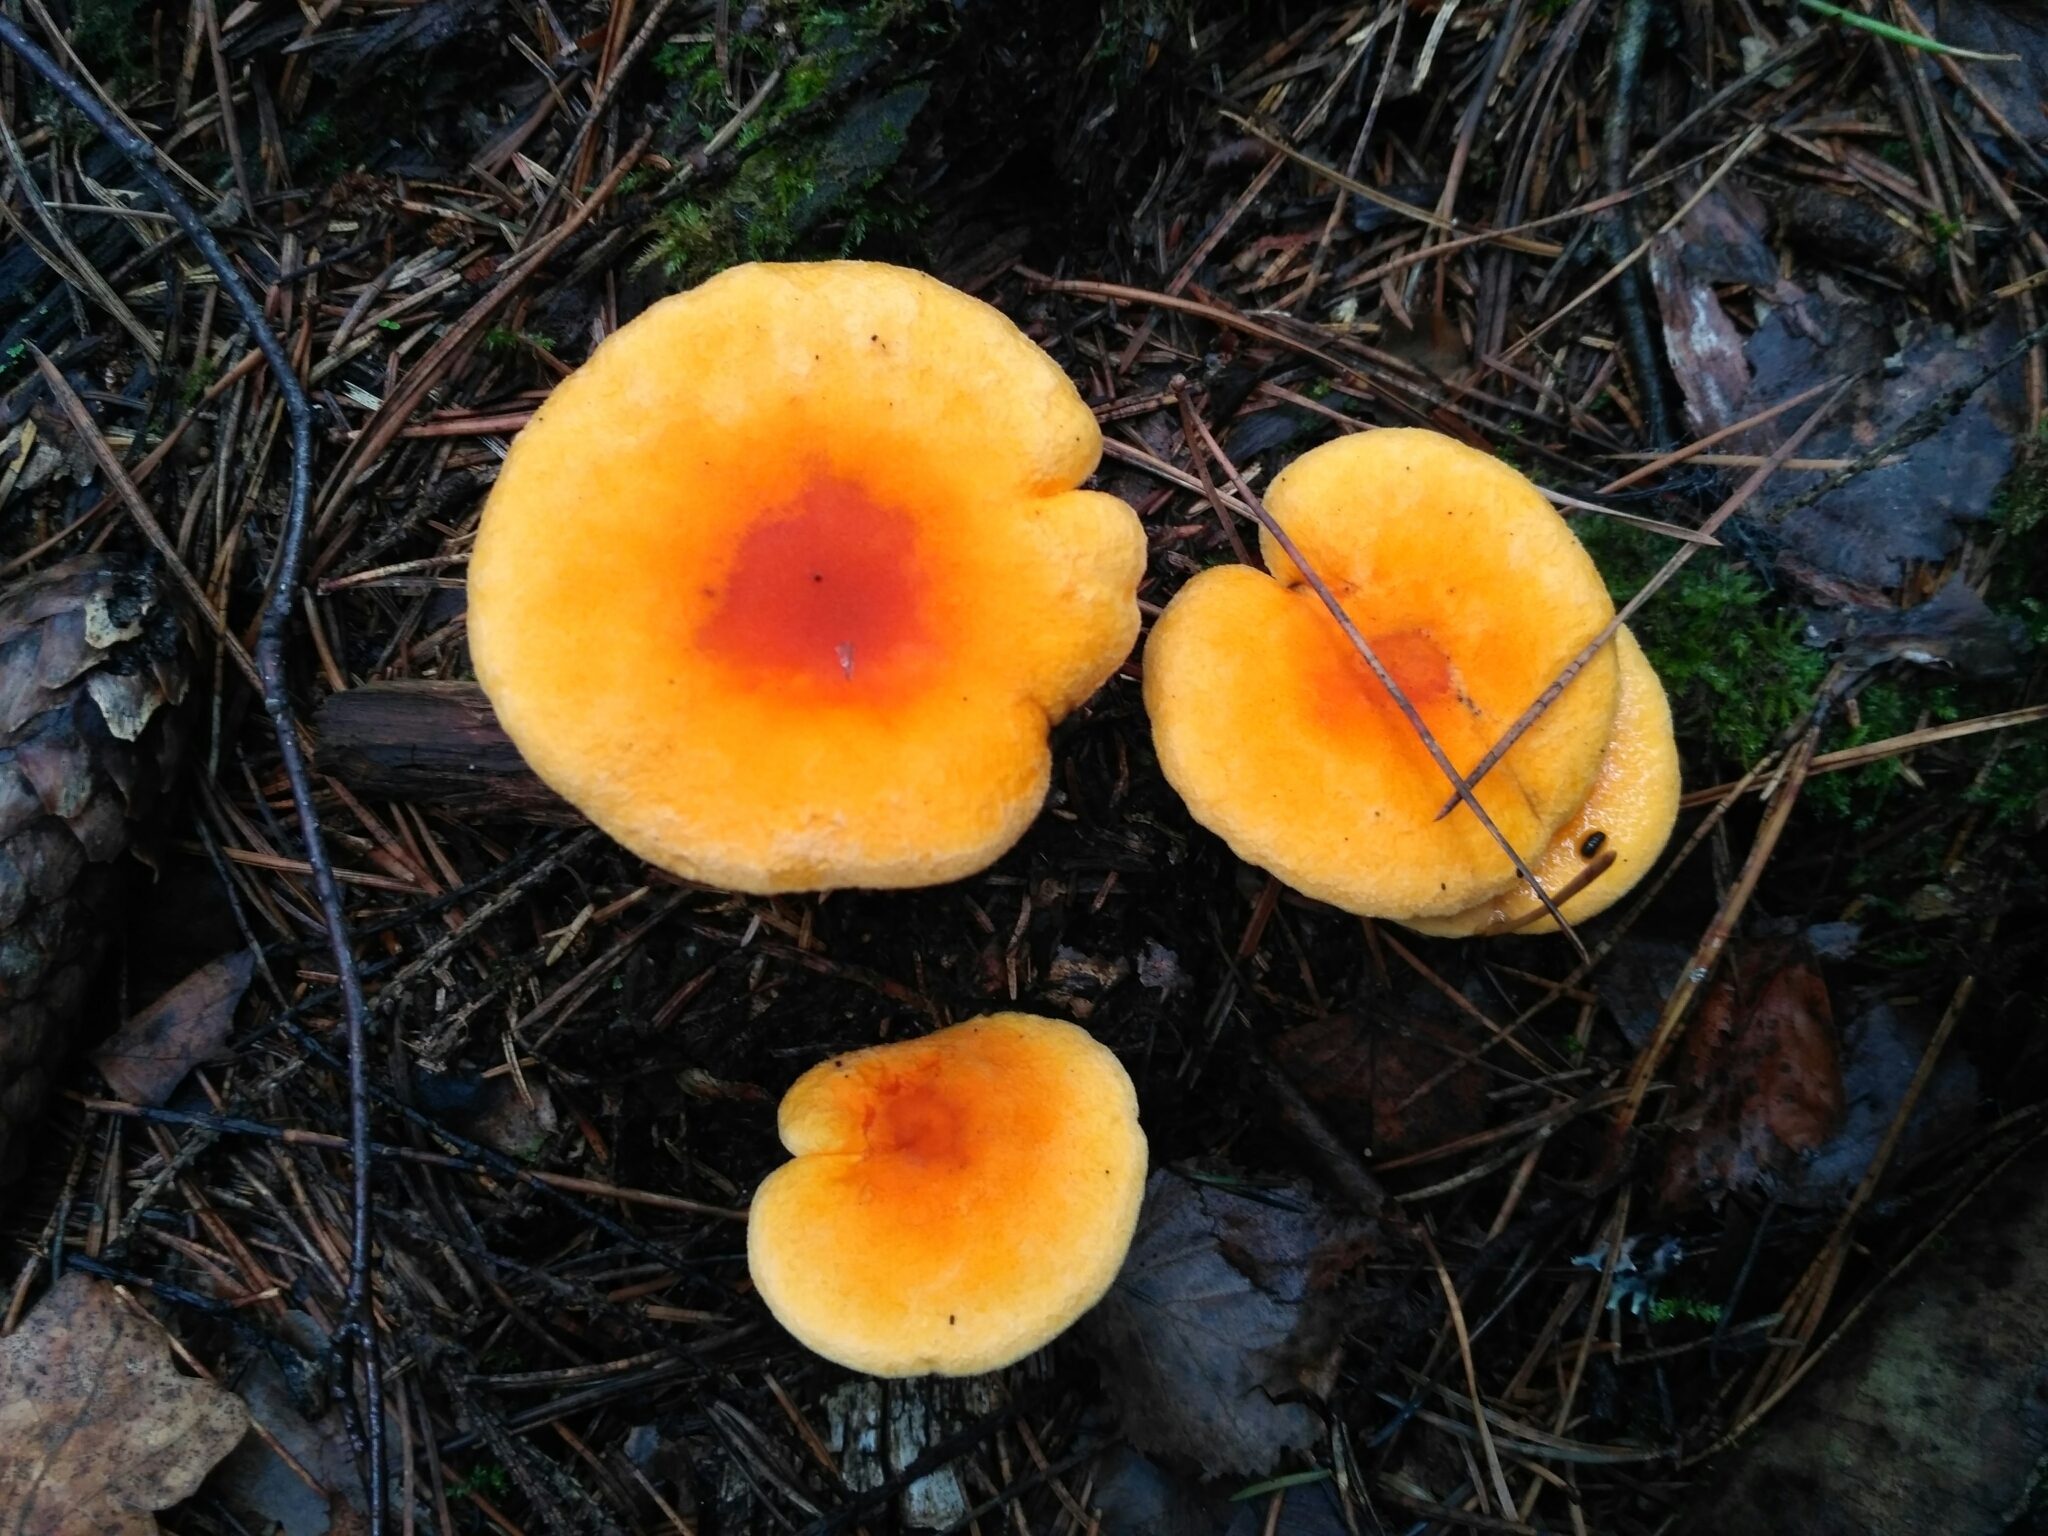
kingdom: Fungi
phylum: Basidiomycota
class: Agaricomycetes
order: Boletales
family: Hygrophoropsidaceae
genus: Hygrophoropsis
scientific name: Hygrophoropsis aurantiaca
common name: False chanterelle
